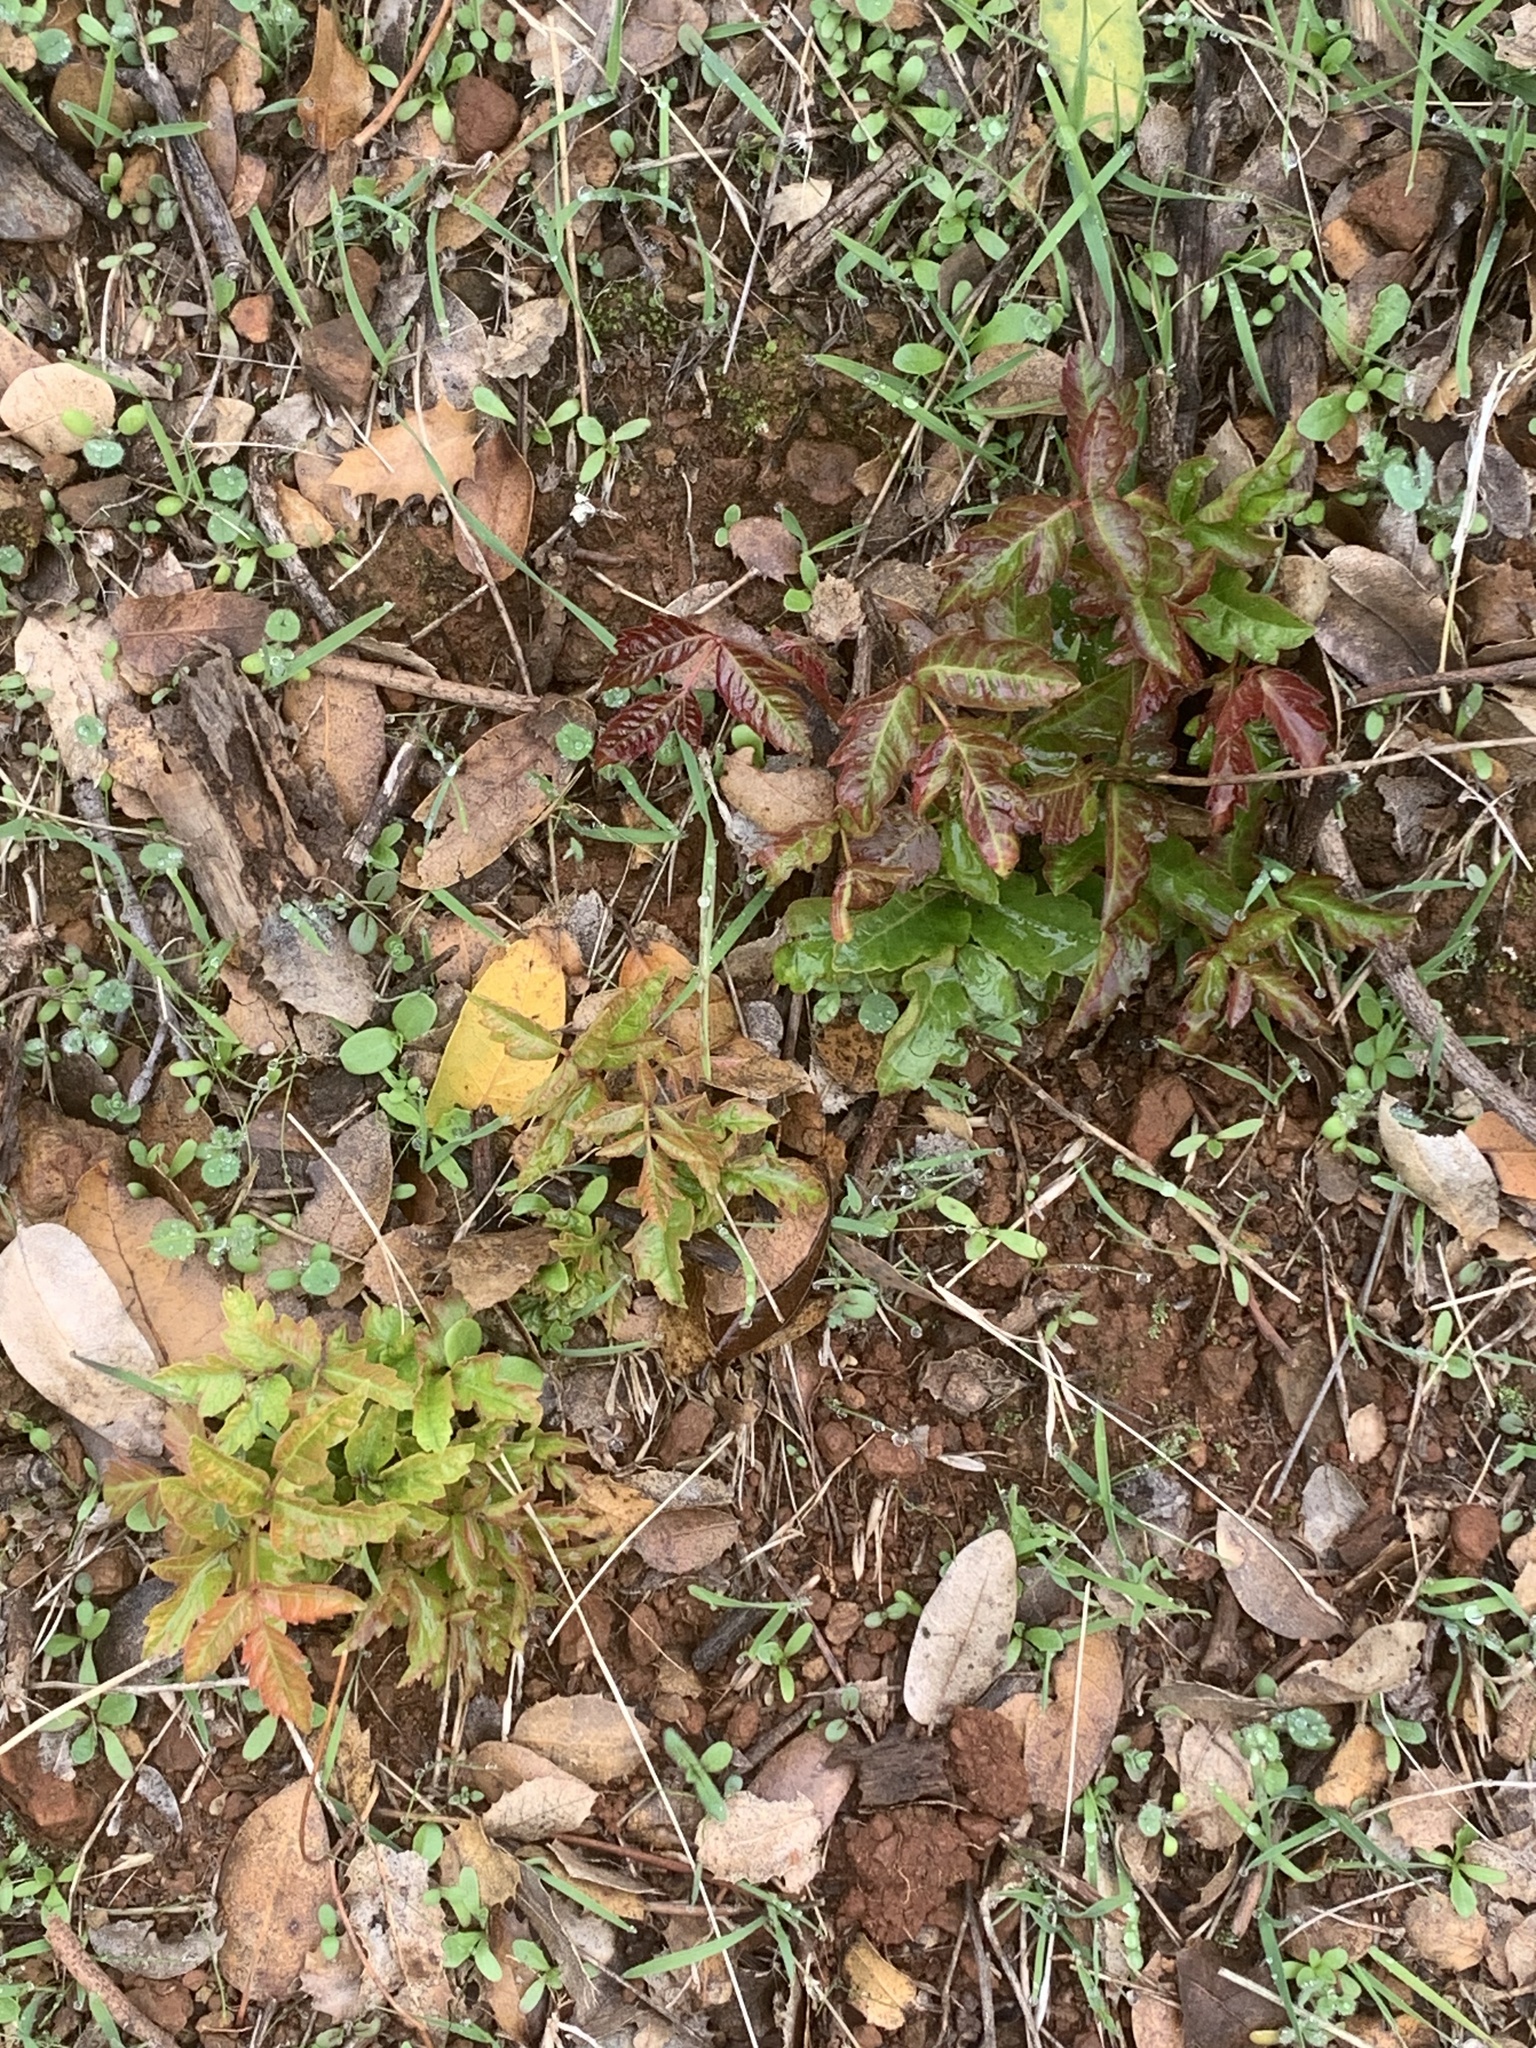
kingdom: Plantae
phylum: Tracheophyta
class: Magnoliopsida
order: Sapindales
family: Anacardiaceae
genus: Toxicodendron
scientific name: Toxicodendron diversilobum
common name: Pacific poison-oak
